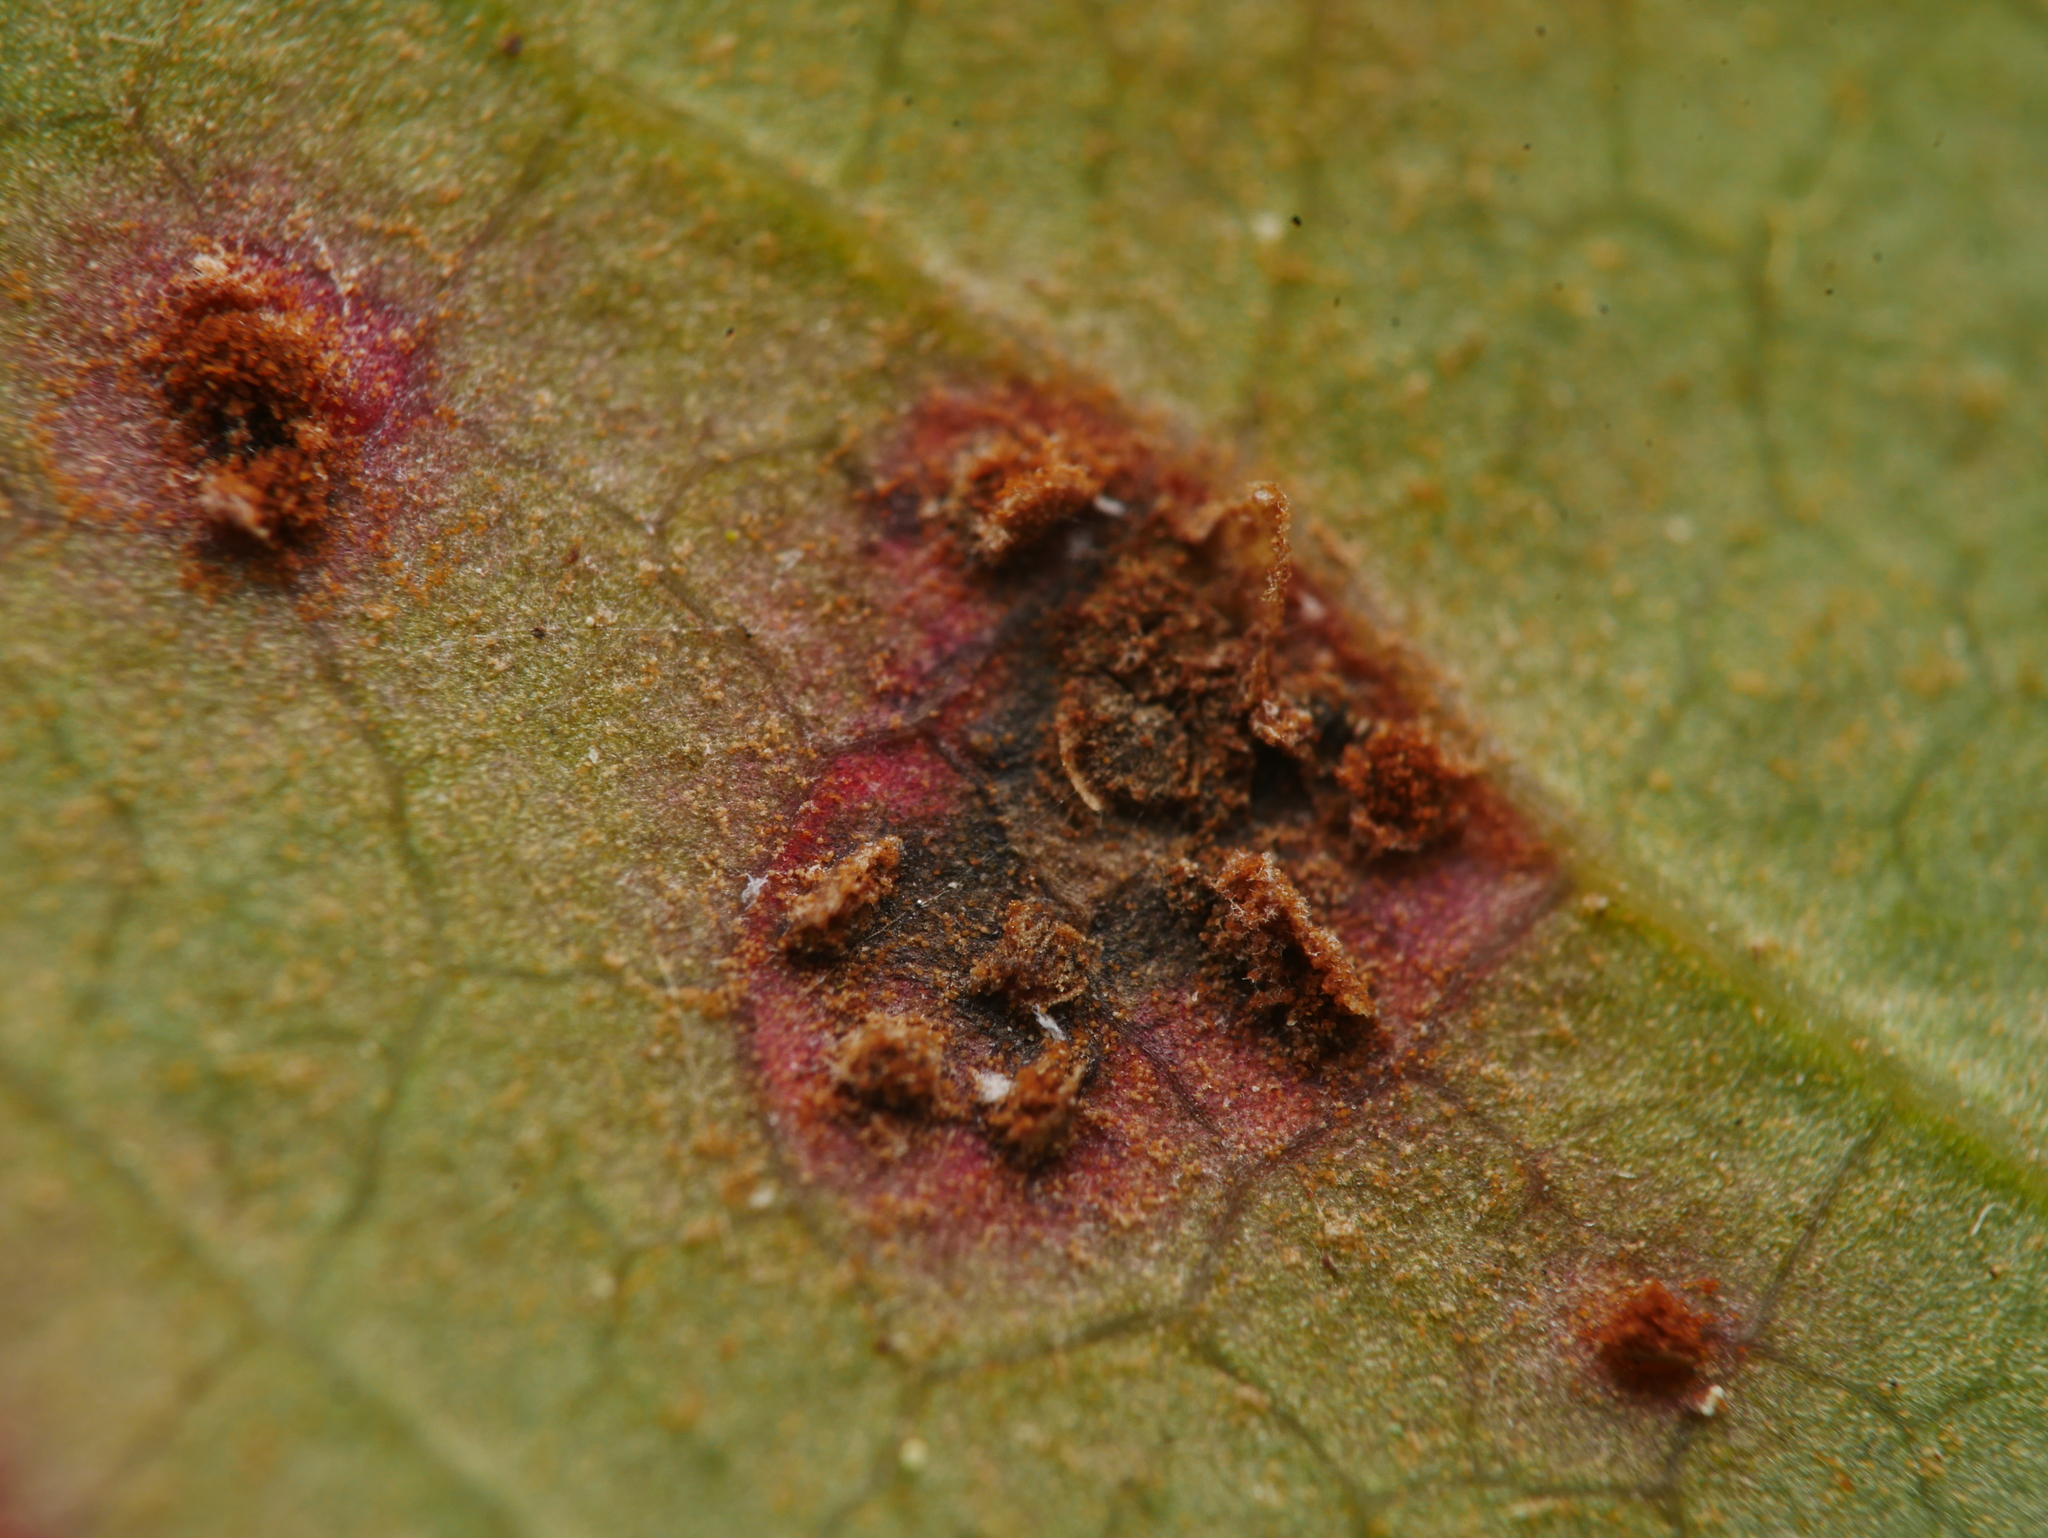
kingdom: Fungi
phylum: Basidiomycota
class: Pucciniomycetes
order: Pucciniales
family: Pucciniaceae
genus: Cumminsiella
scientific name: Cumminsiella mirabilissima
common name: Mahonia rust
